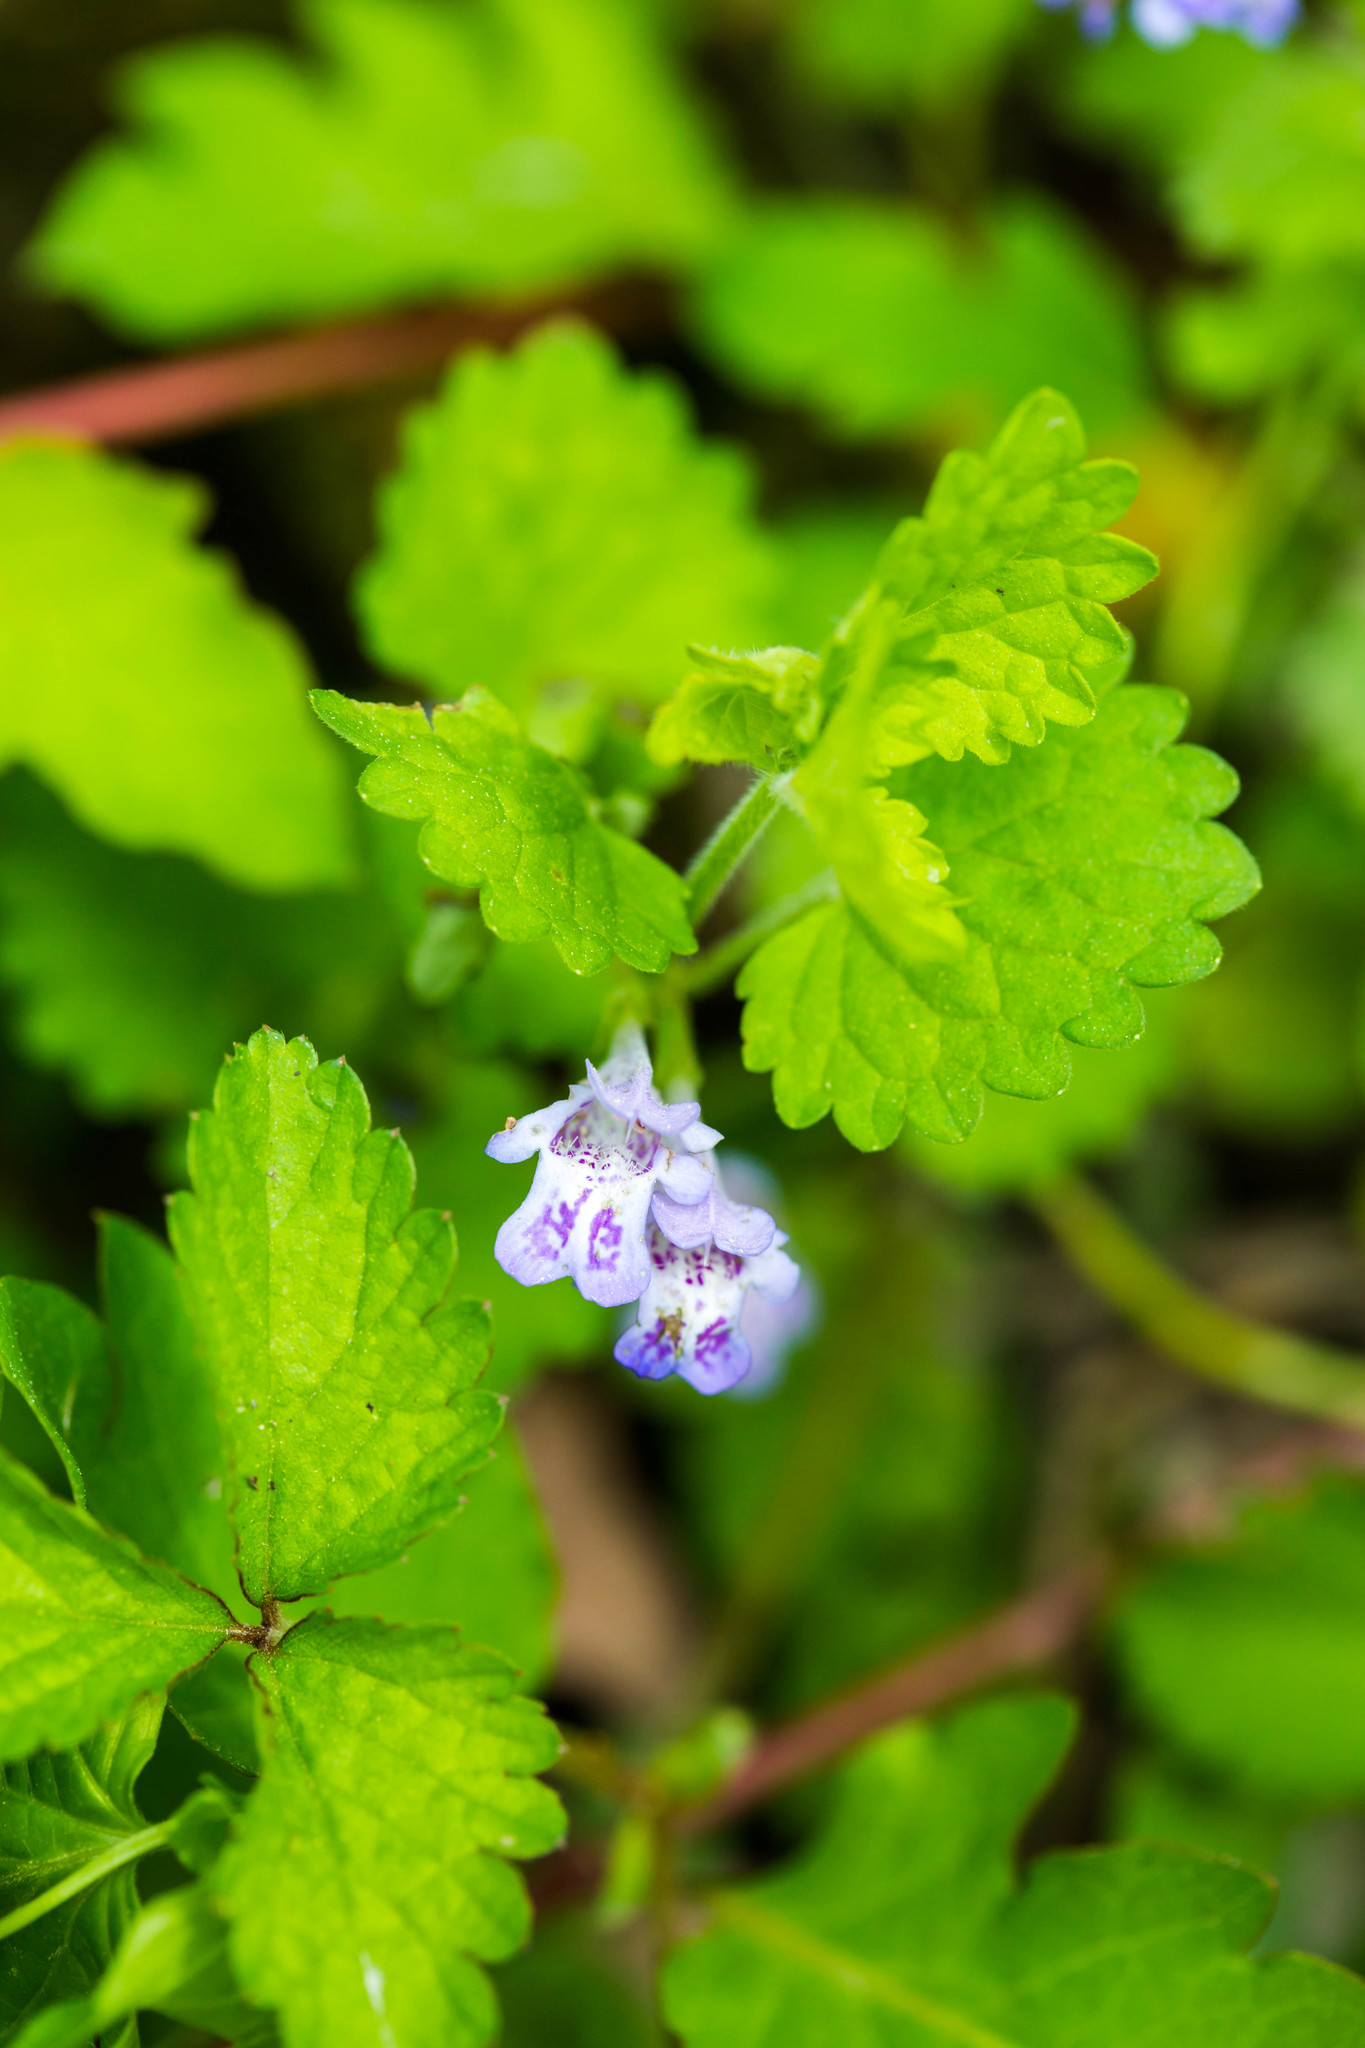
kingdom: Plantae
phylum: Tracheophyta
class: Magnoliopsida
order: Lamiales
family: Lamiaceae
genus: Glechoma
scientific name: Glechoma hederacea
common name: Ground ivy
